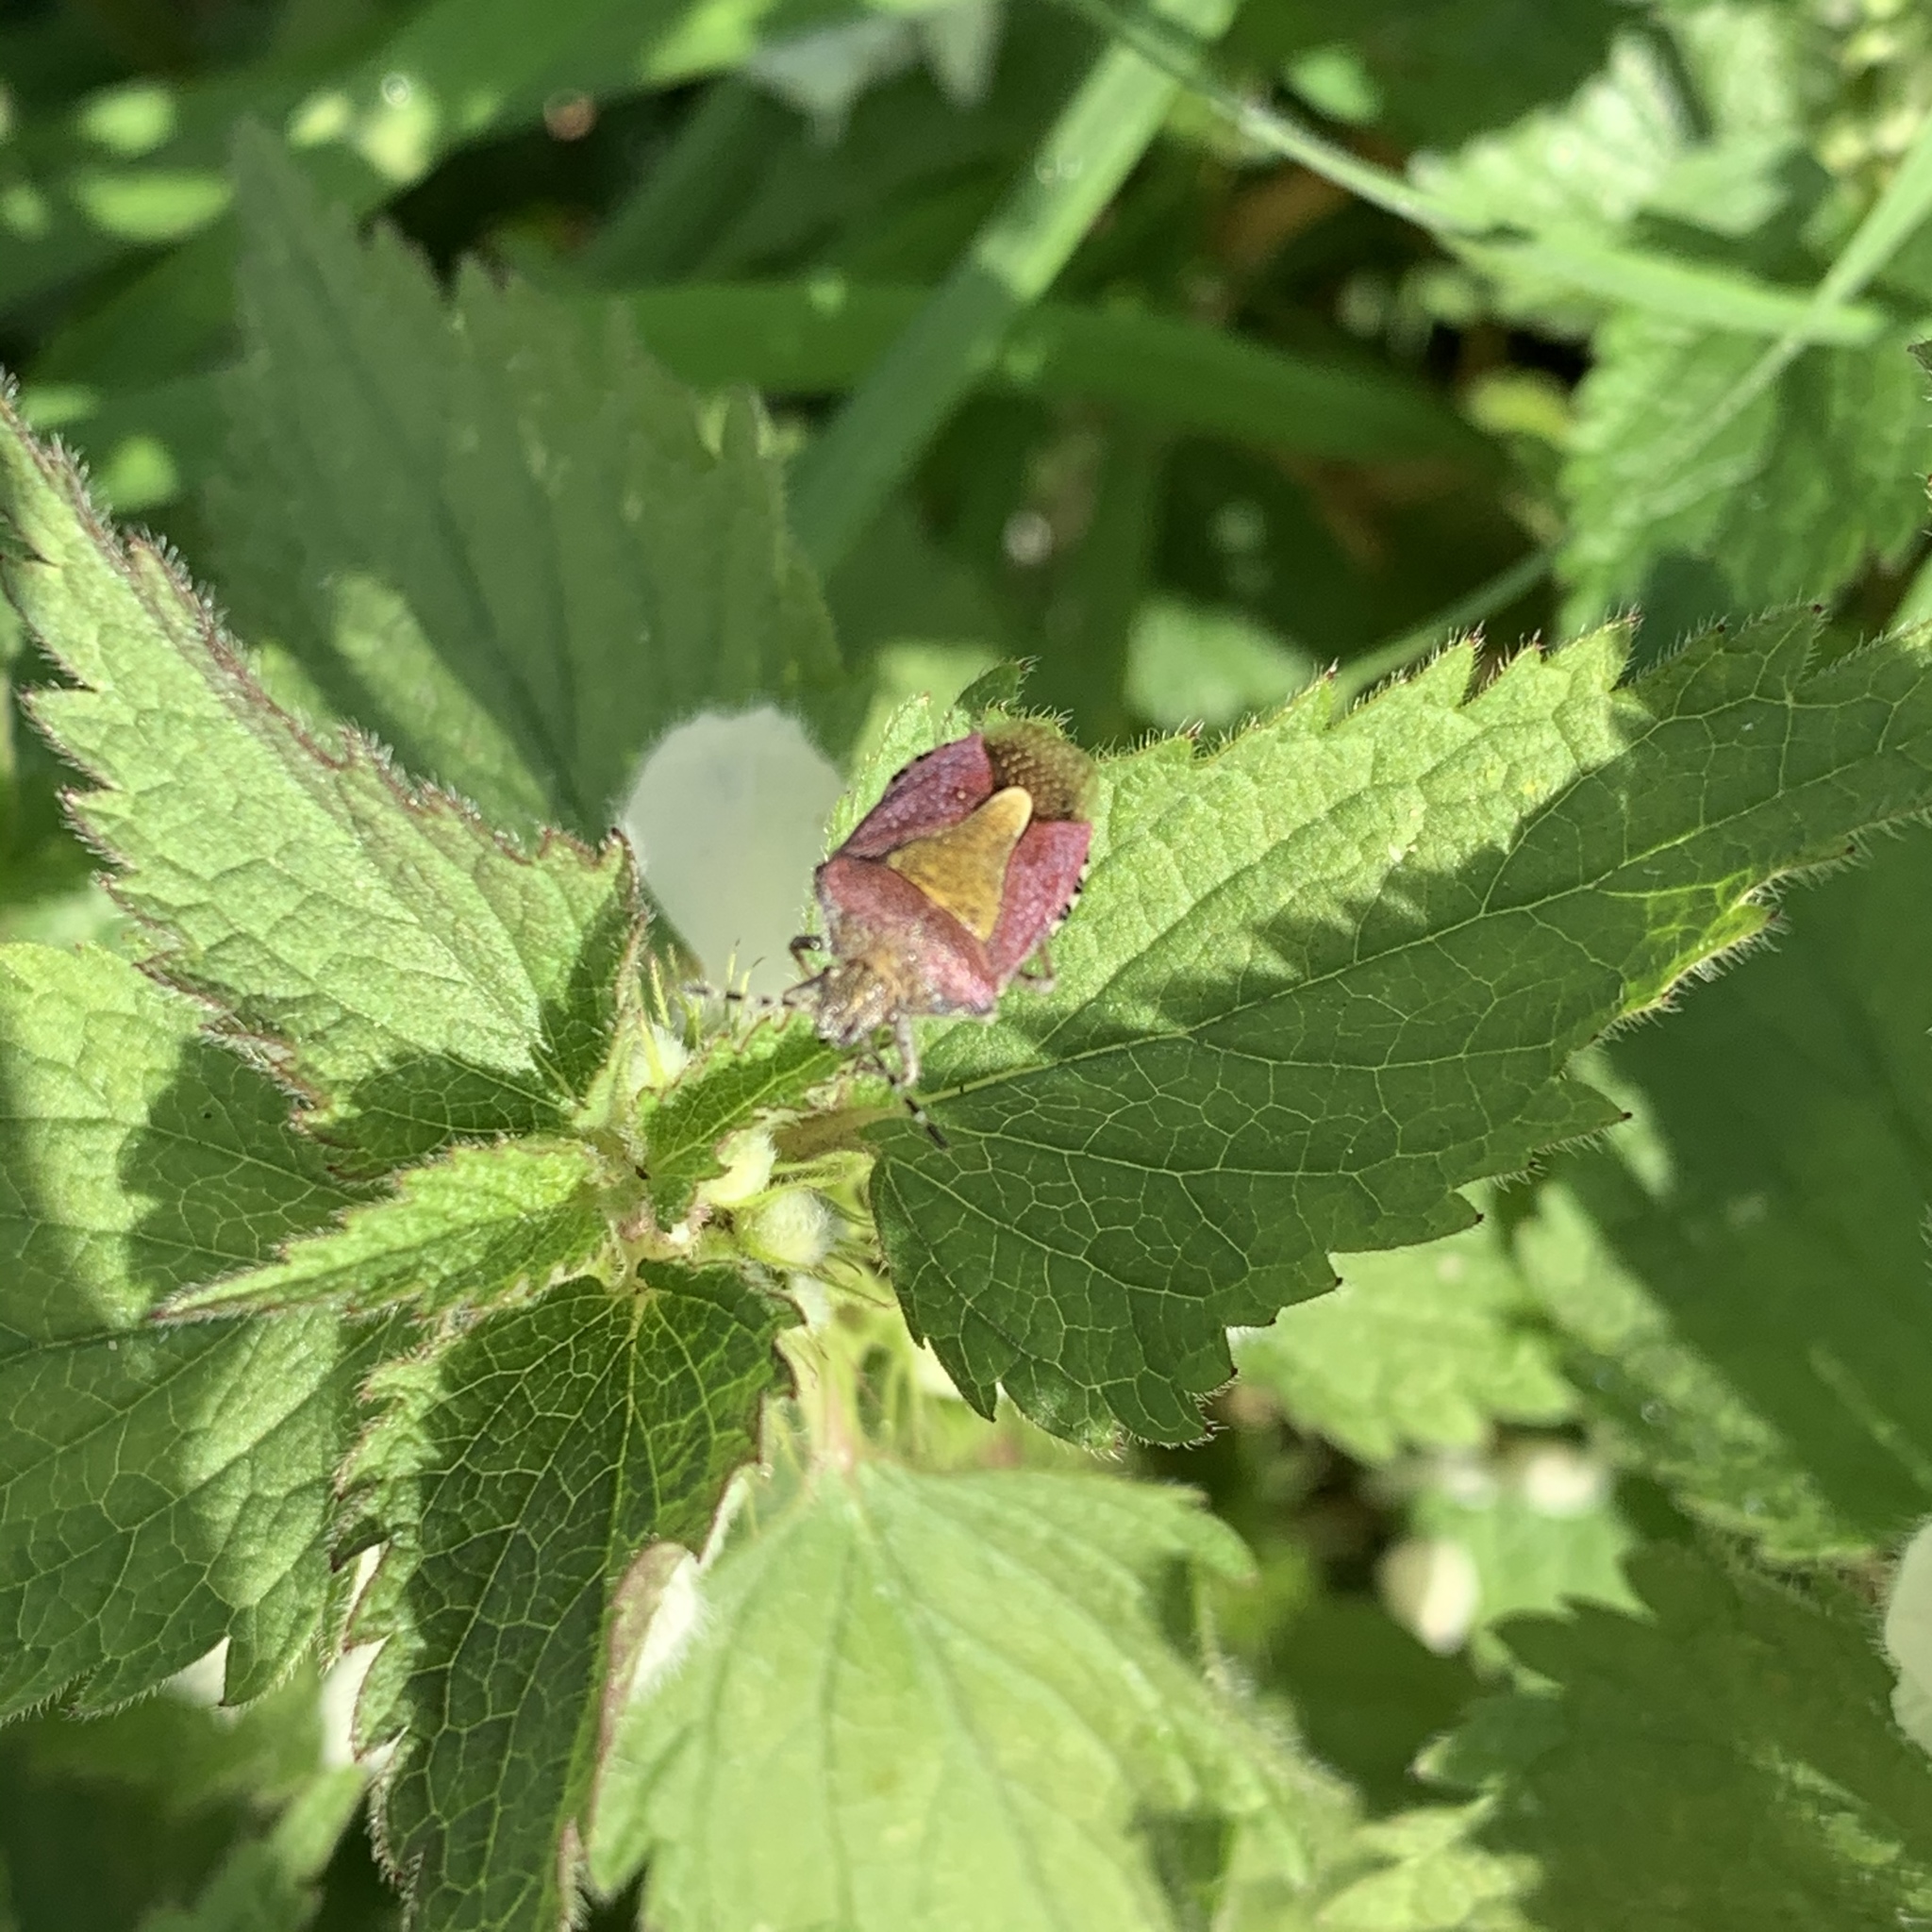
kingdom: Animalia
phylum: Arthropoda
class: Insecta
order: Hemiptera
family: Pentatomidae
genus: Dolycoris
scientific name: Dolycoris baccarum
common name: Sloe bug
